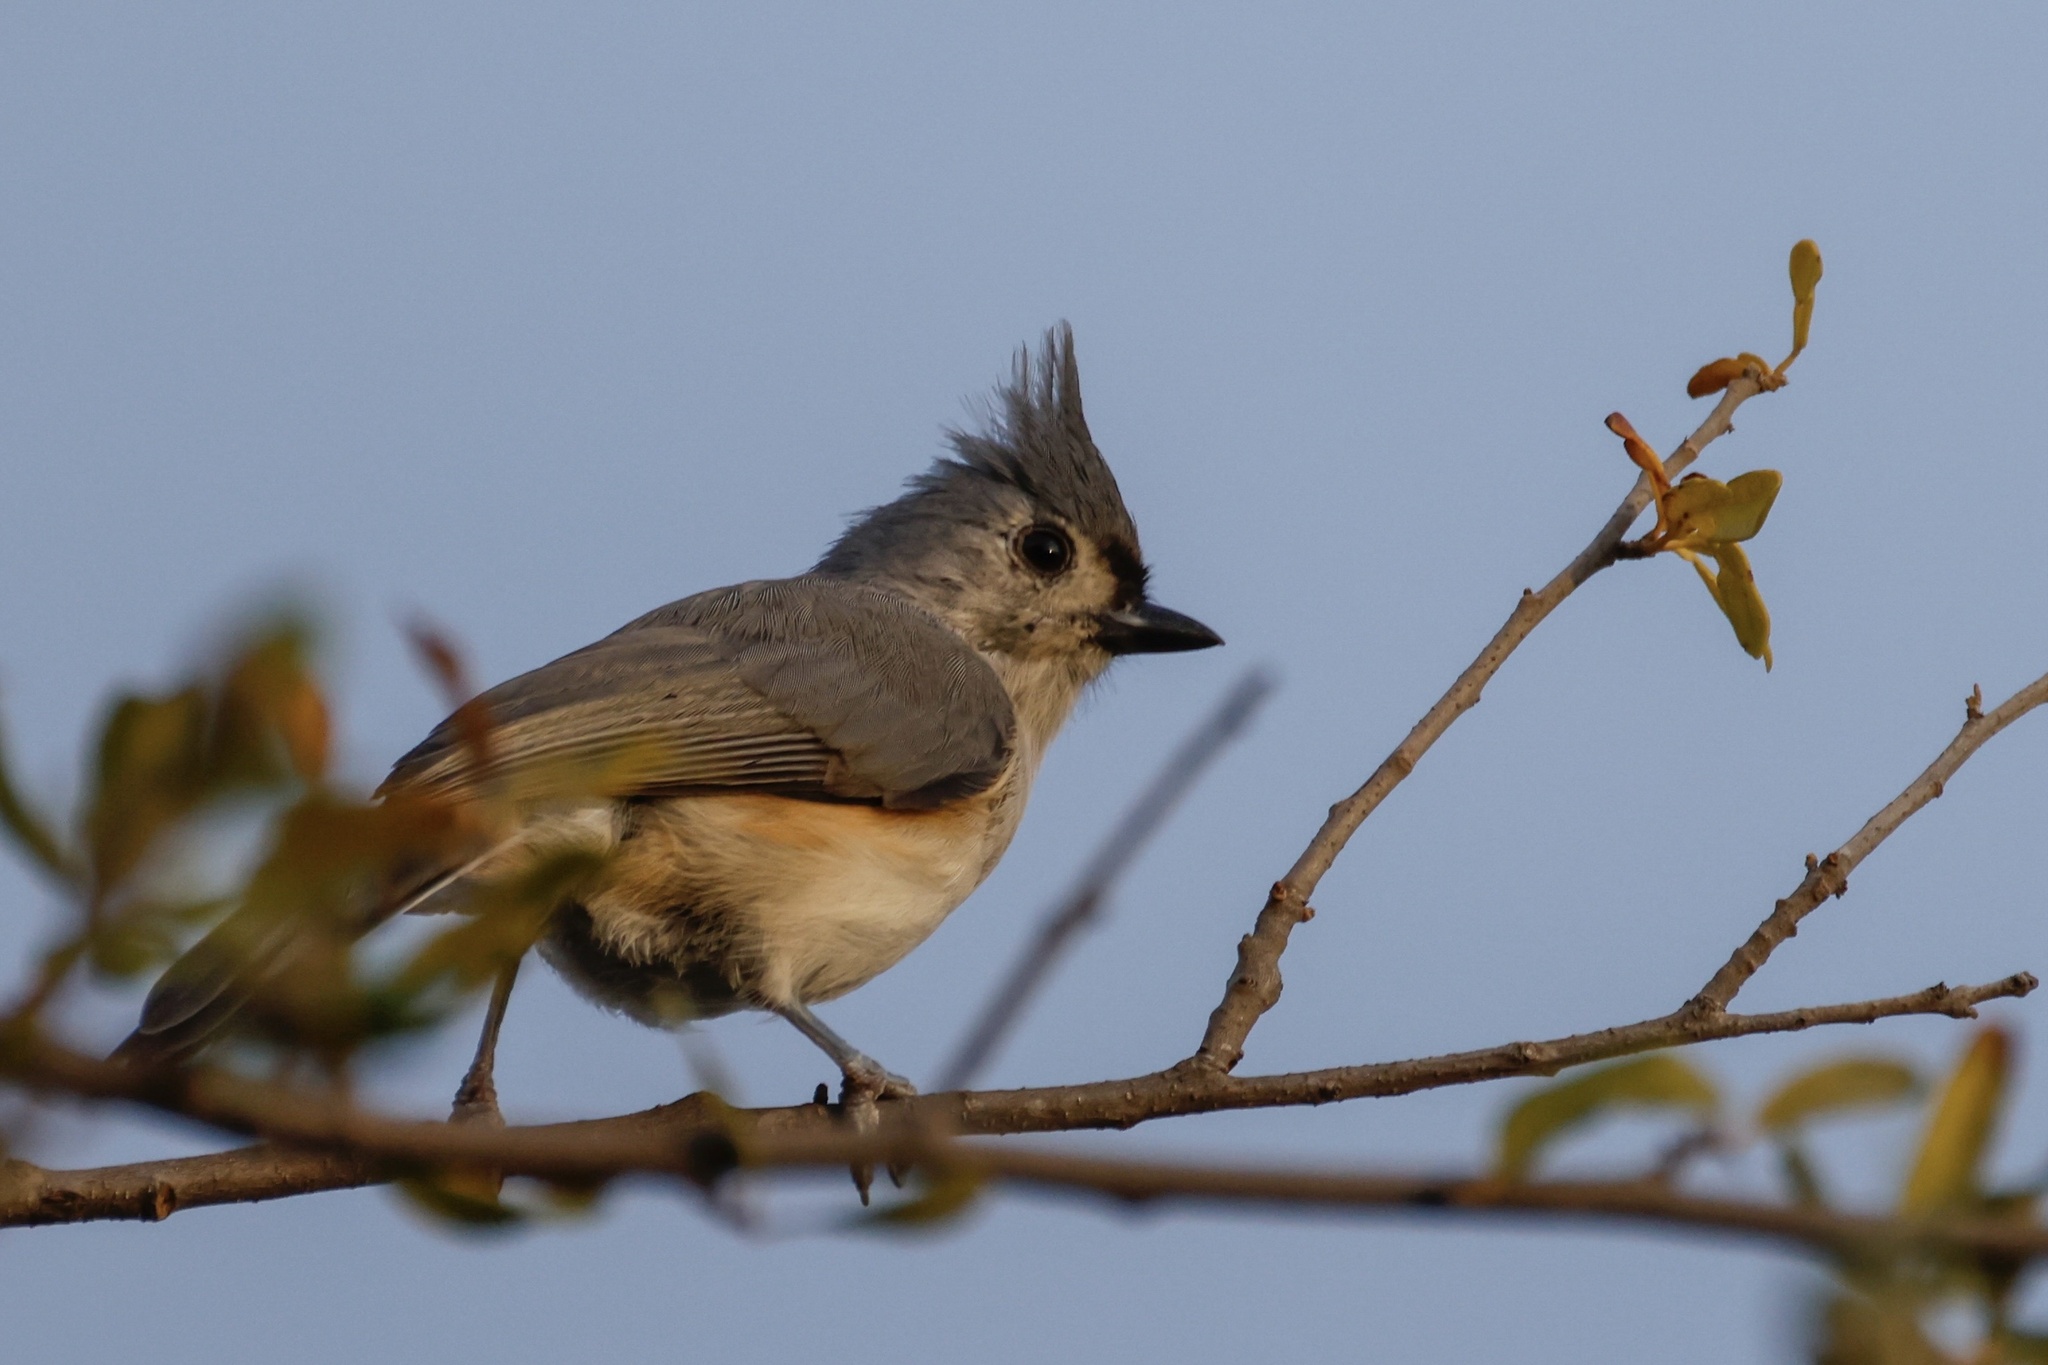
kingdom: Animalia
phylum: Chordata
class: Aves
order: Passeriformes
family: Paridae
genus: Baeolophus
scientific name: Baeolophus bicolor
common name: Tufted titmouse
